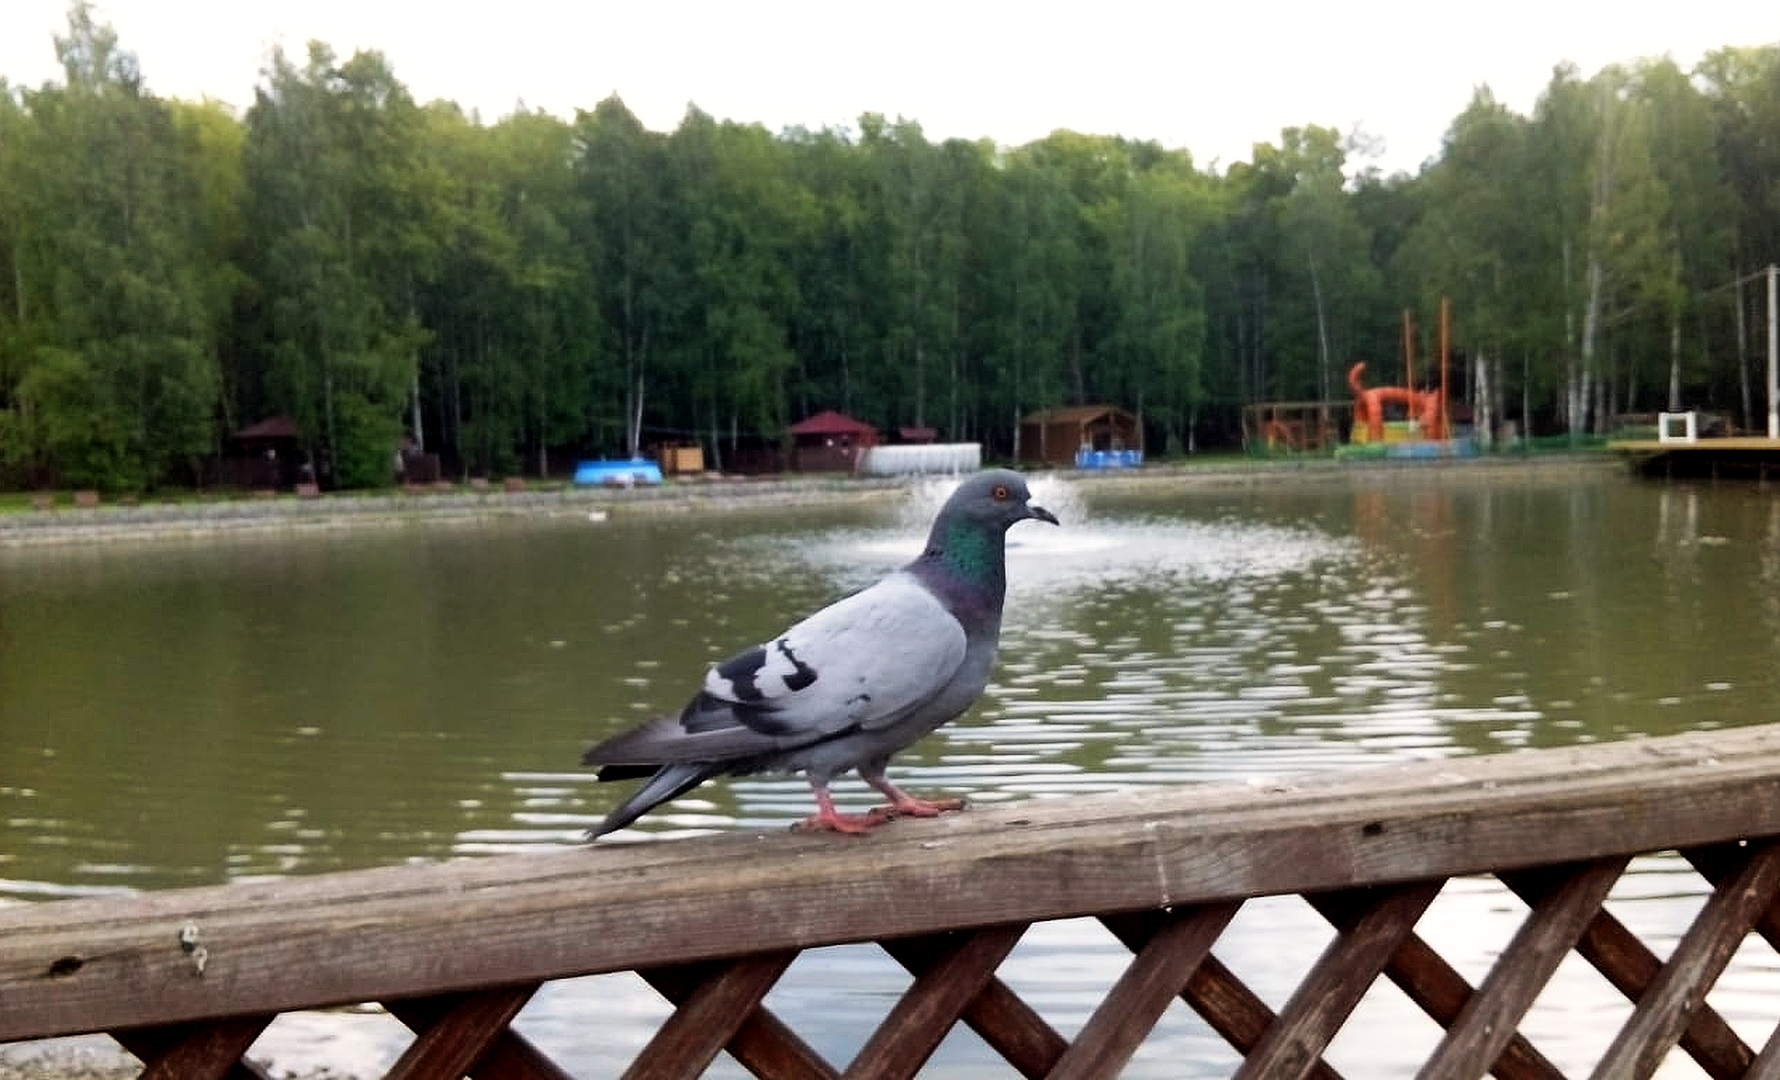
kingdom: Animalia
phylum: Chordata
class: Aves
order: Columbiformes
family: Columbidae
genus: Columba
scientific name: Columba livia
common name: Rock pigeon
